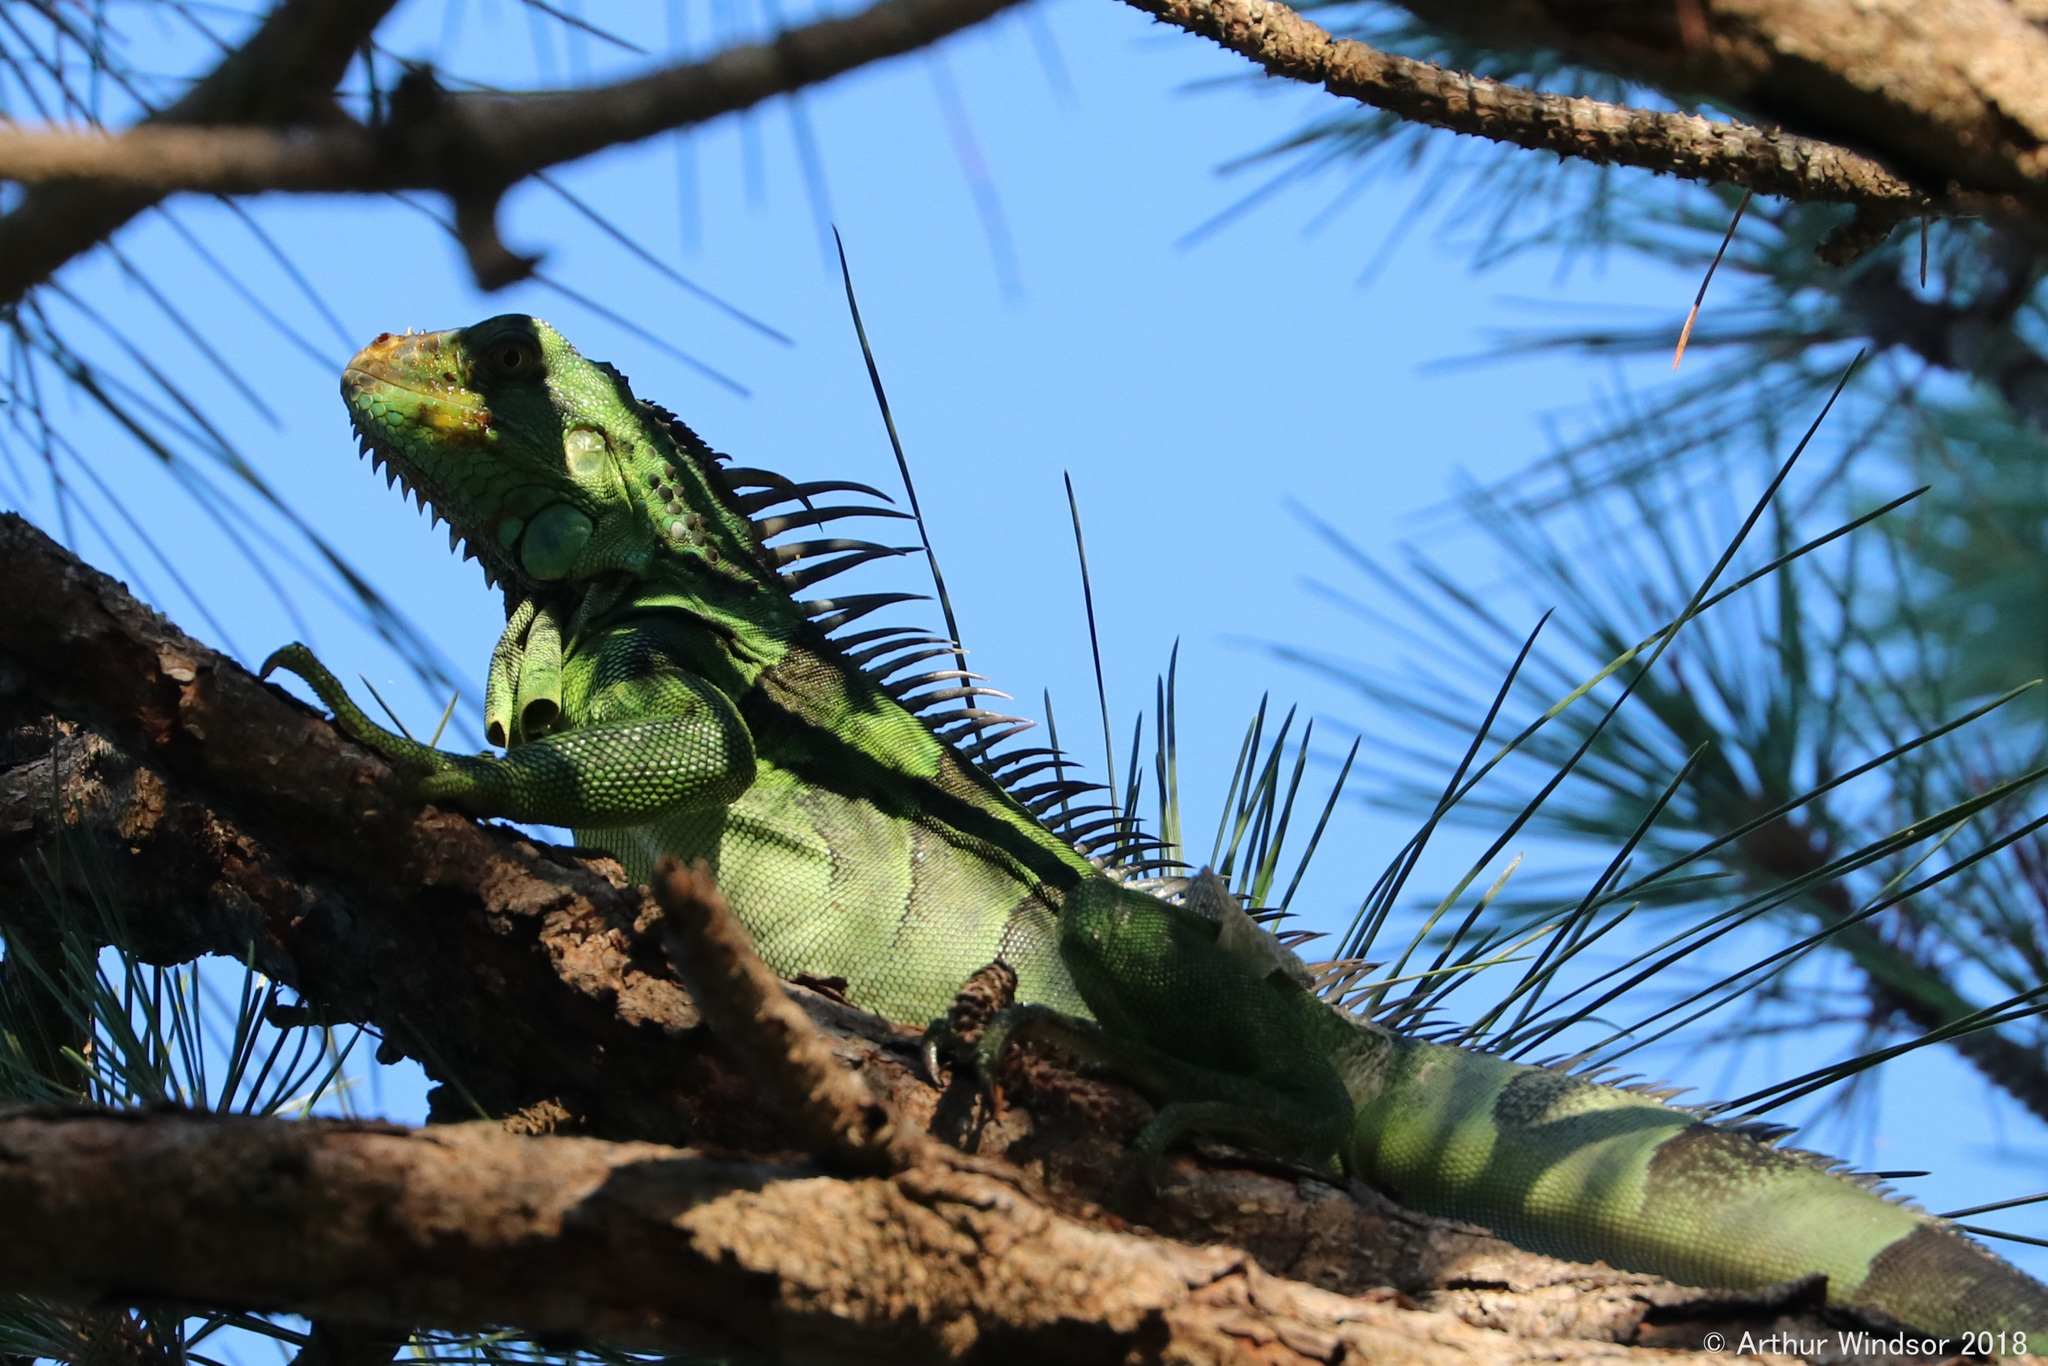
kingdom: Animalia
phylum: Chordata
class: Squamata
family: Iguanidae
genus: Iguana
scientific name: Iguana iguana
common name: Green iguana
